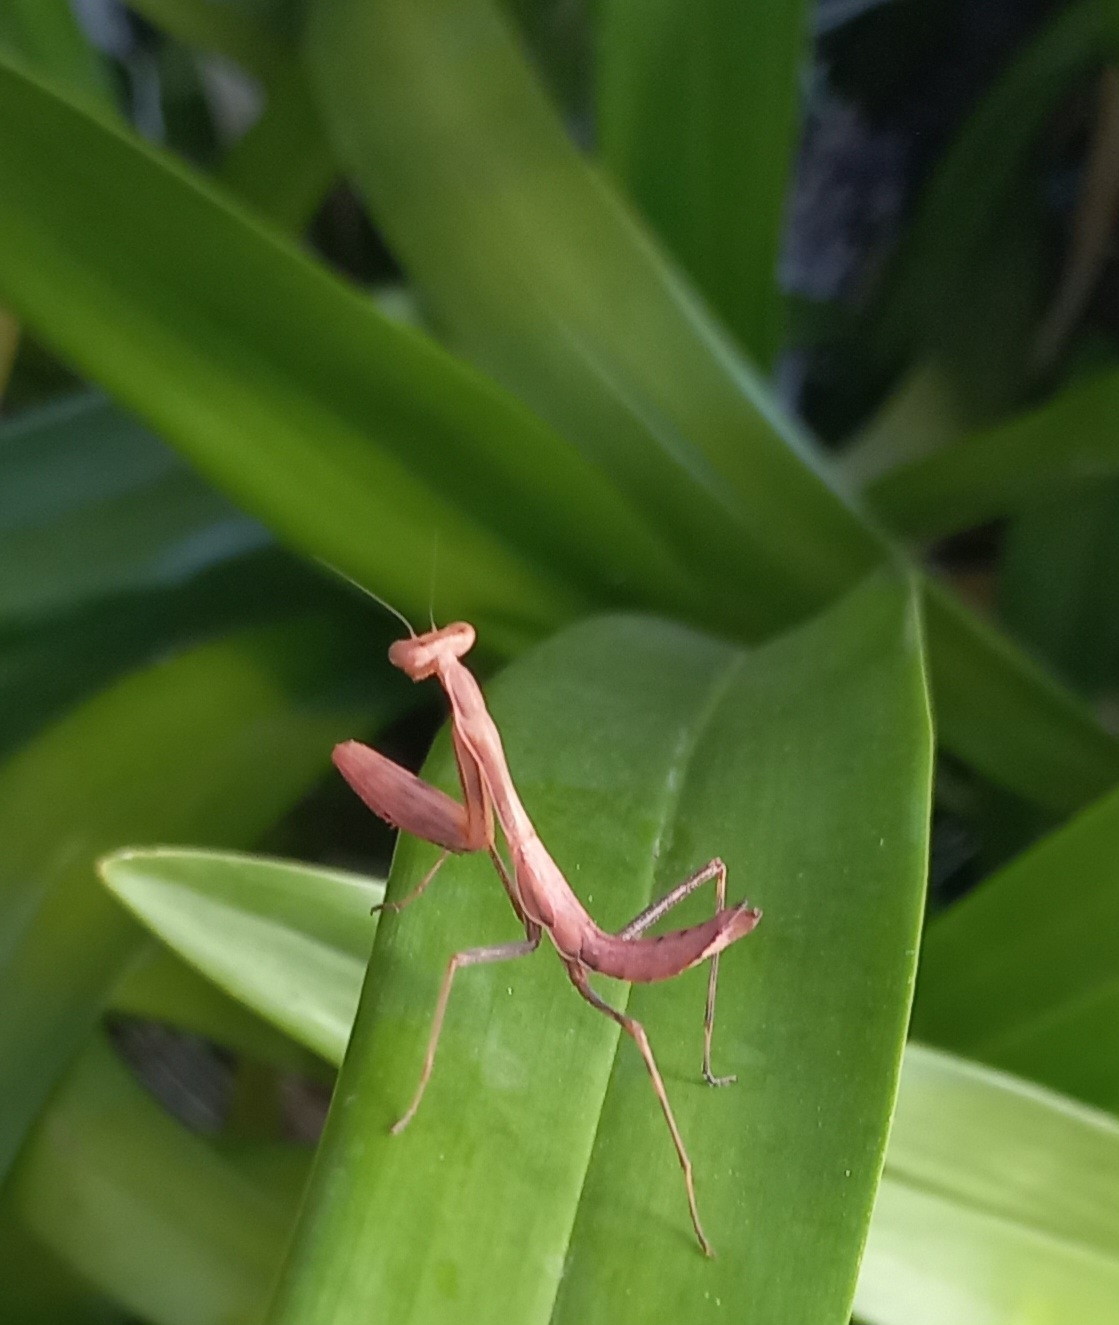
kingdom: Animalia
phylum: Arthropoda
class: Insecta
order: Mantodea
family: Miomantidae
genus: Miomantis
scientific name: Miomantis caffra
